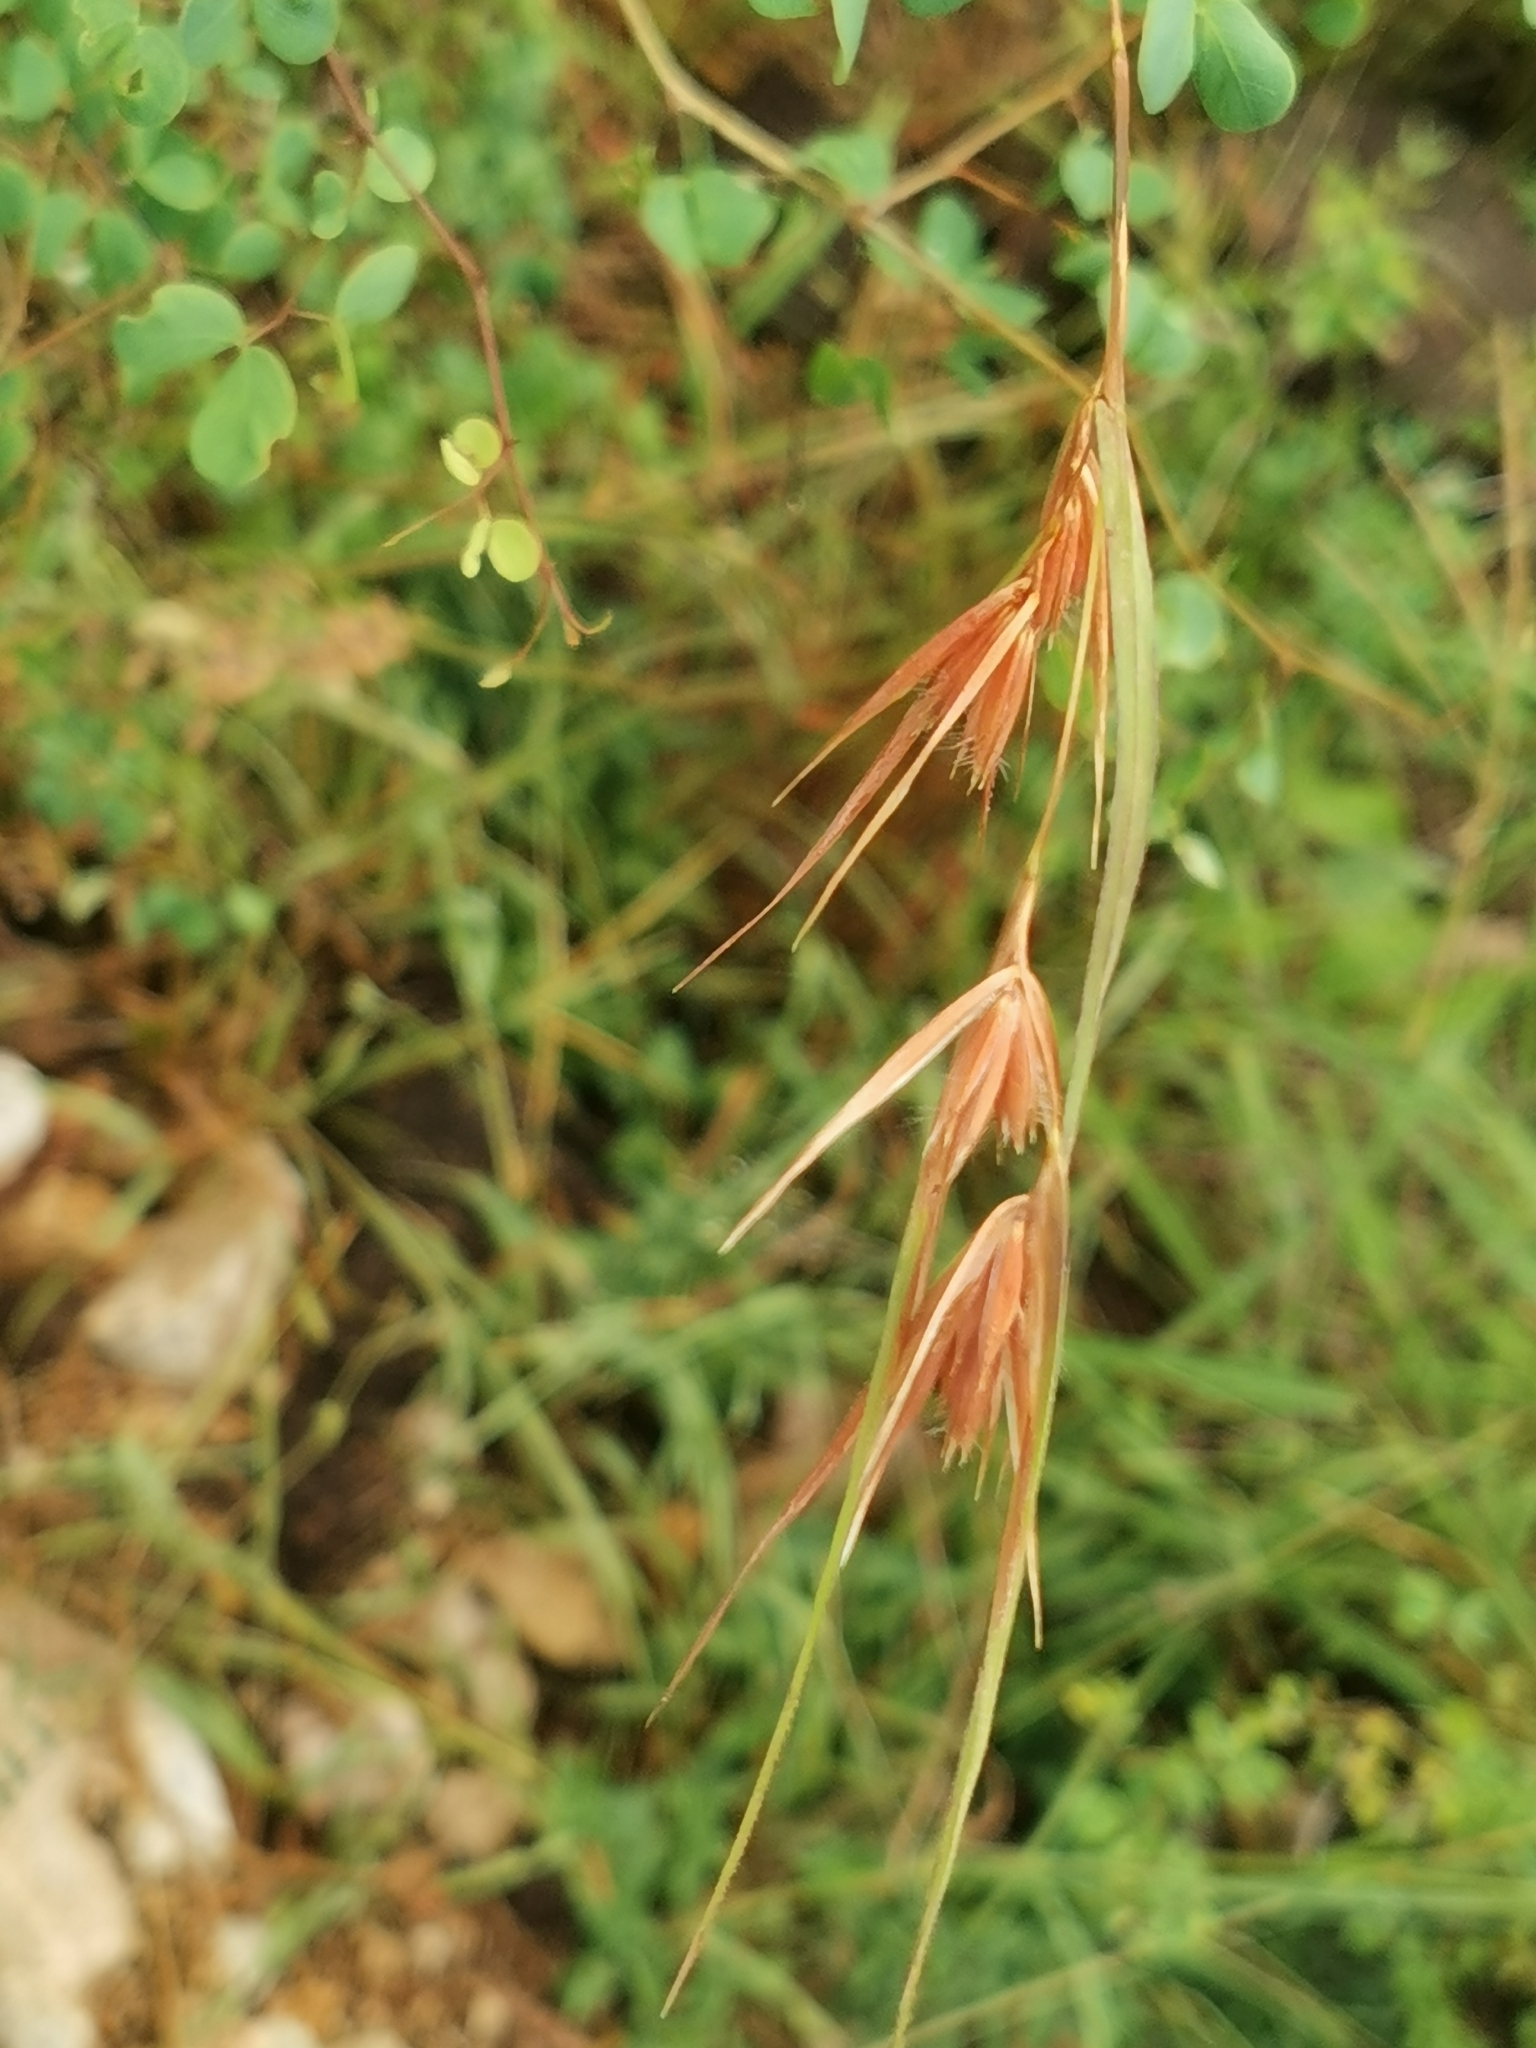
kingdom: Plantae
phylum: Tracheophyta
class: Liliopsida
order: Poales
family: Poaceae
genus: Themeda
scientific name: Themeda triandra
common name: Kangaroo grass
